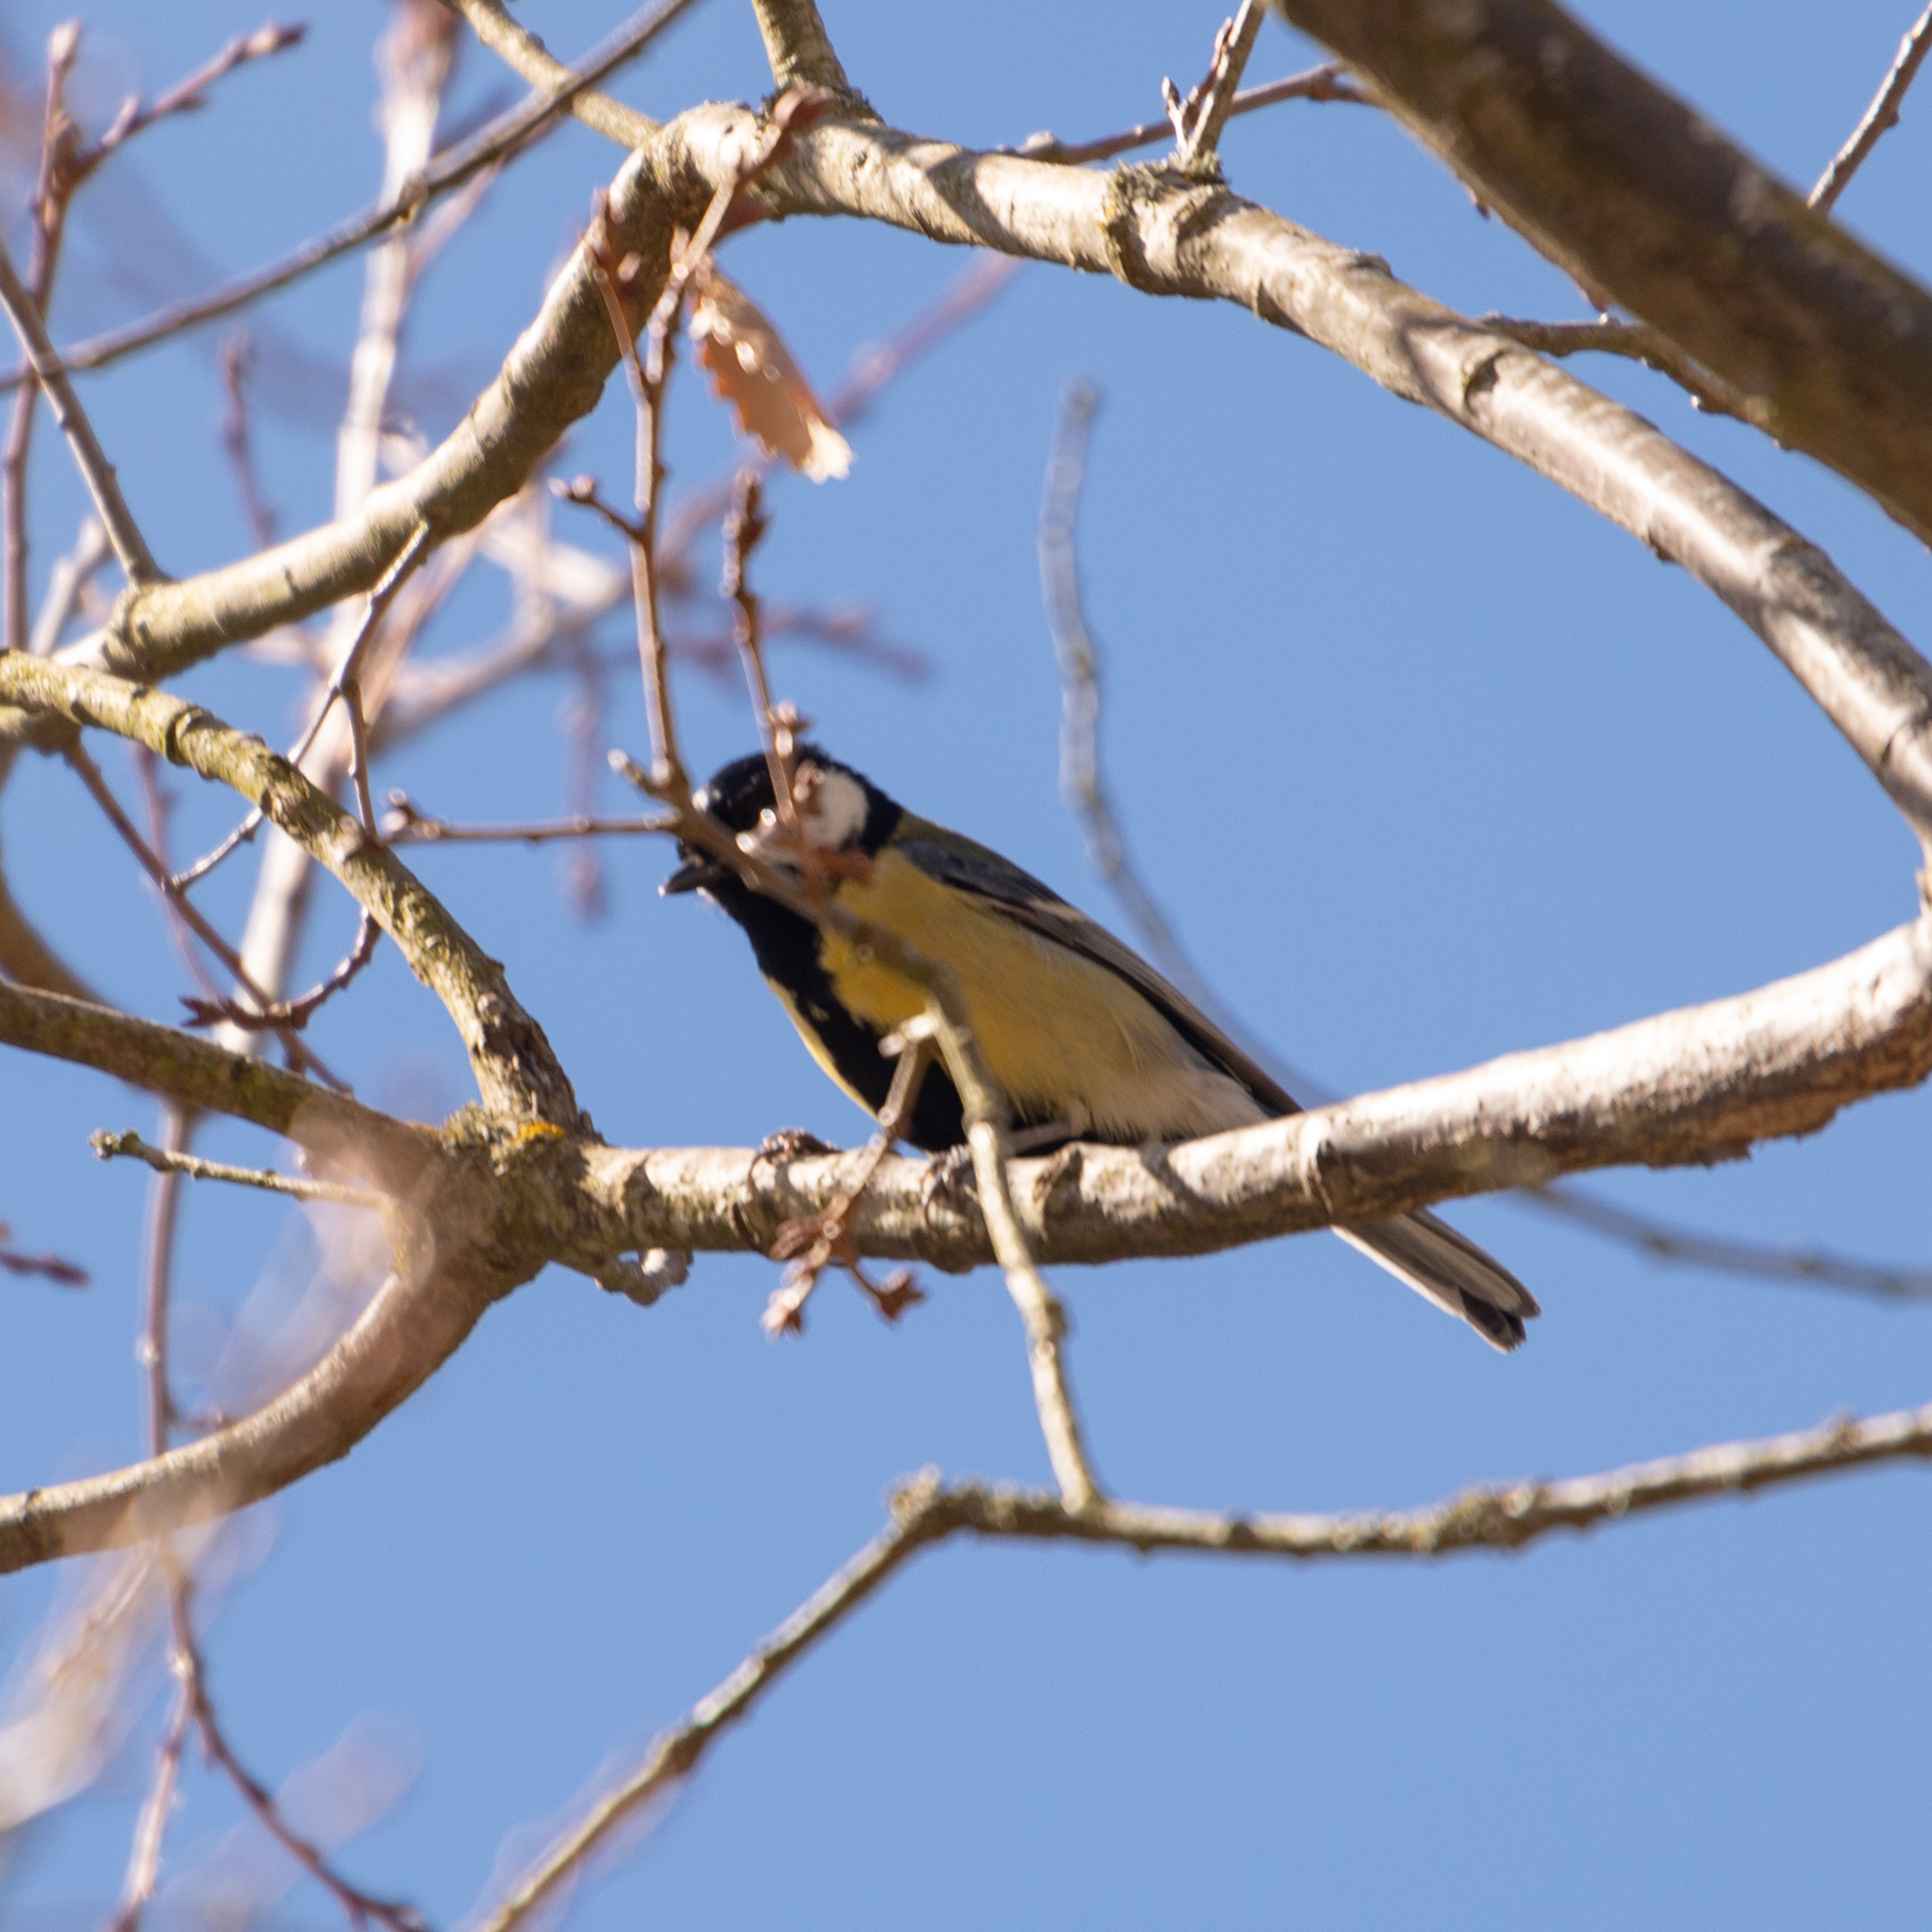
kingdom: Animalia
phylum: Chordata
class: Aves
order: Passeriformes
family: Paridae
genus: Parus
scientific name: Parus major
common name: Great tit
